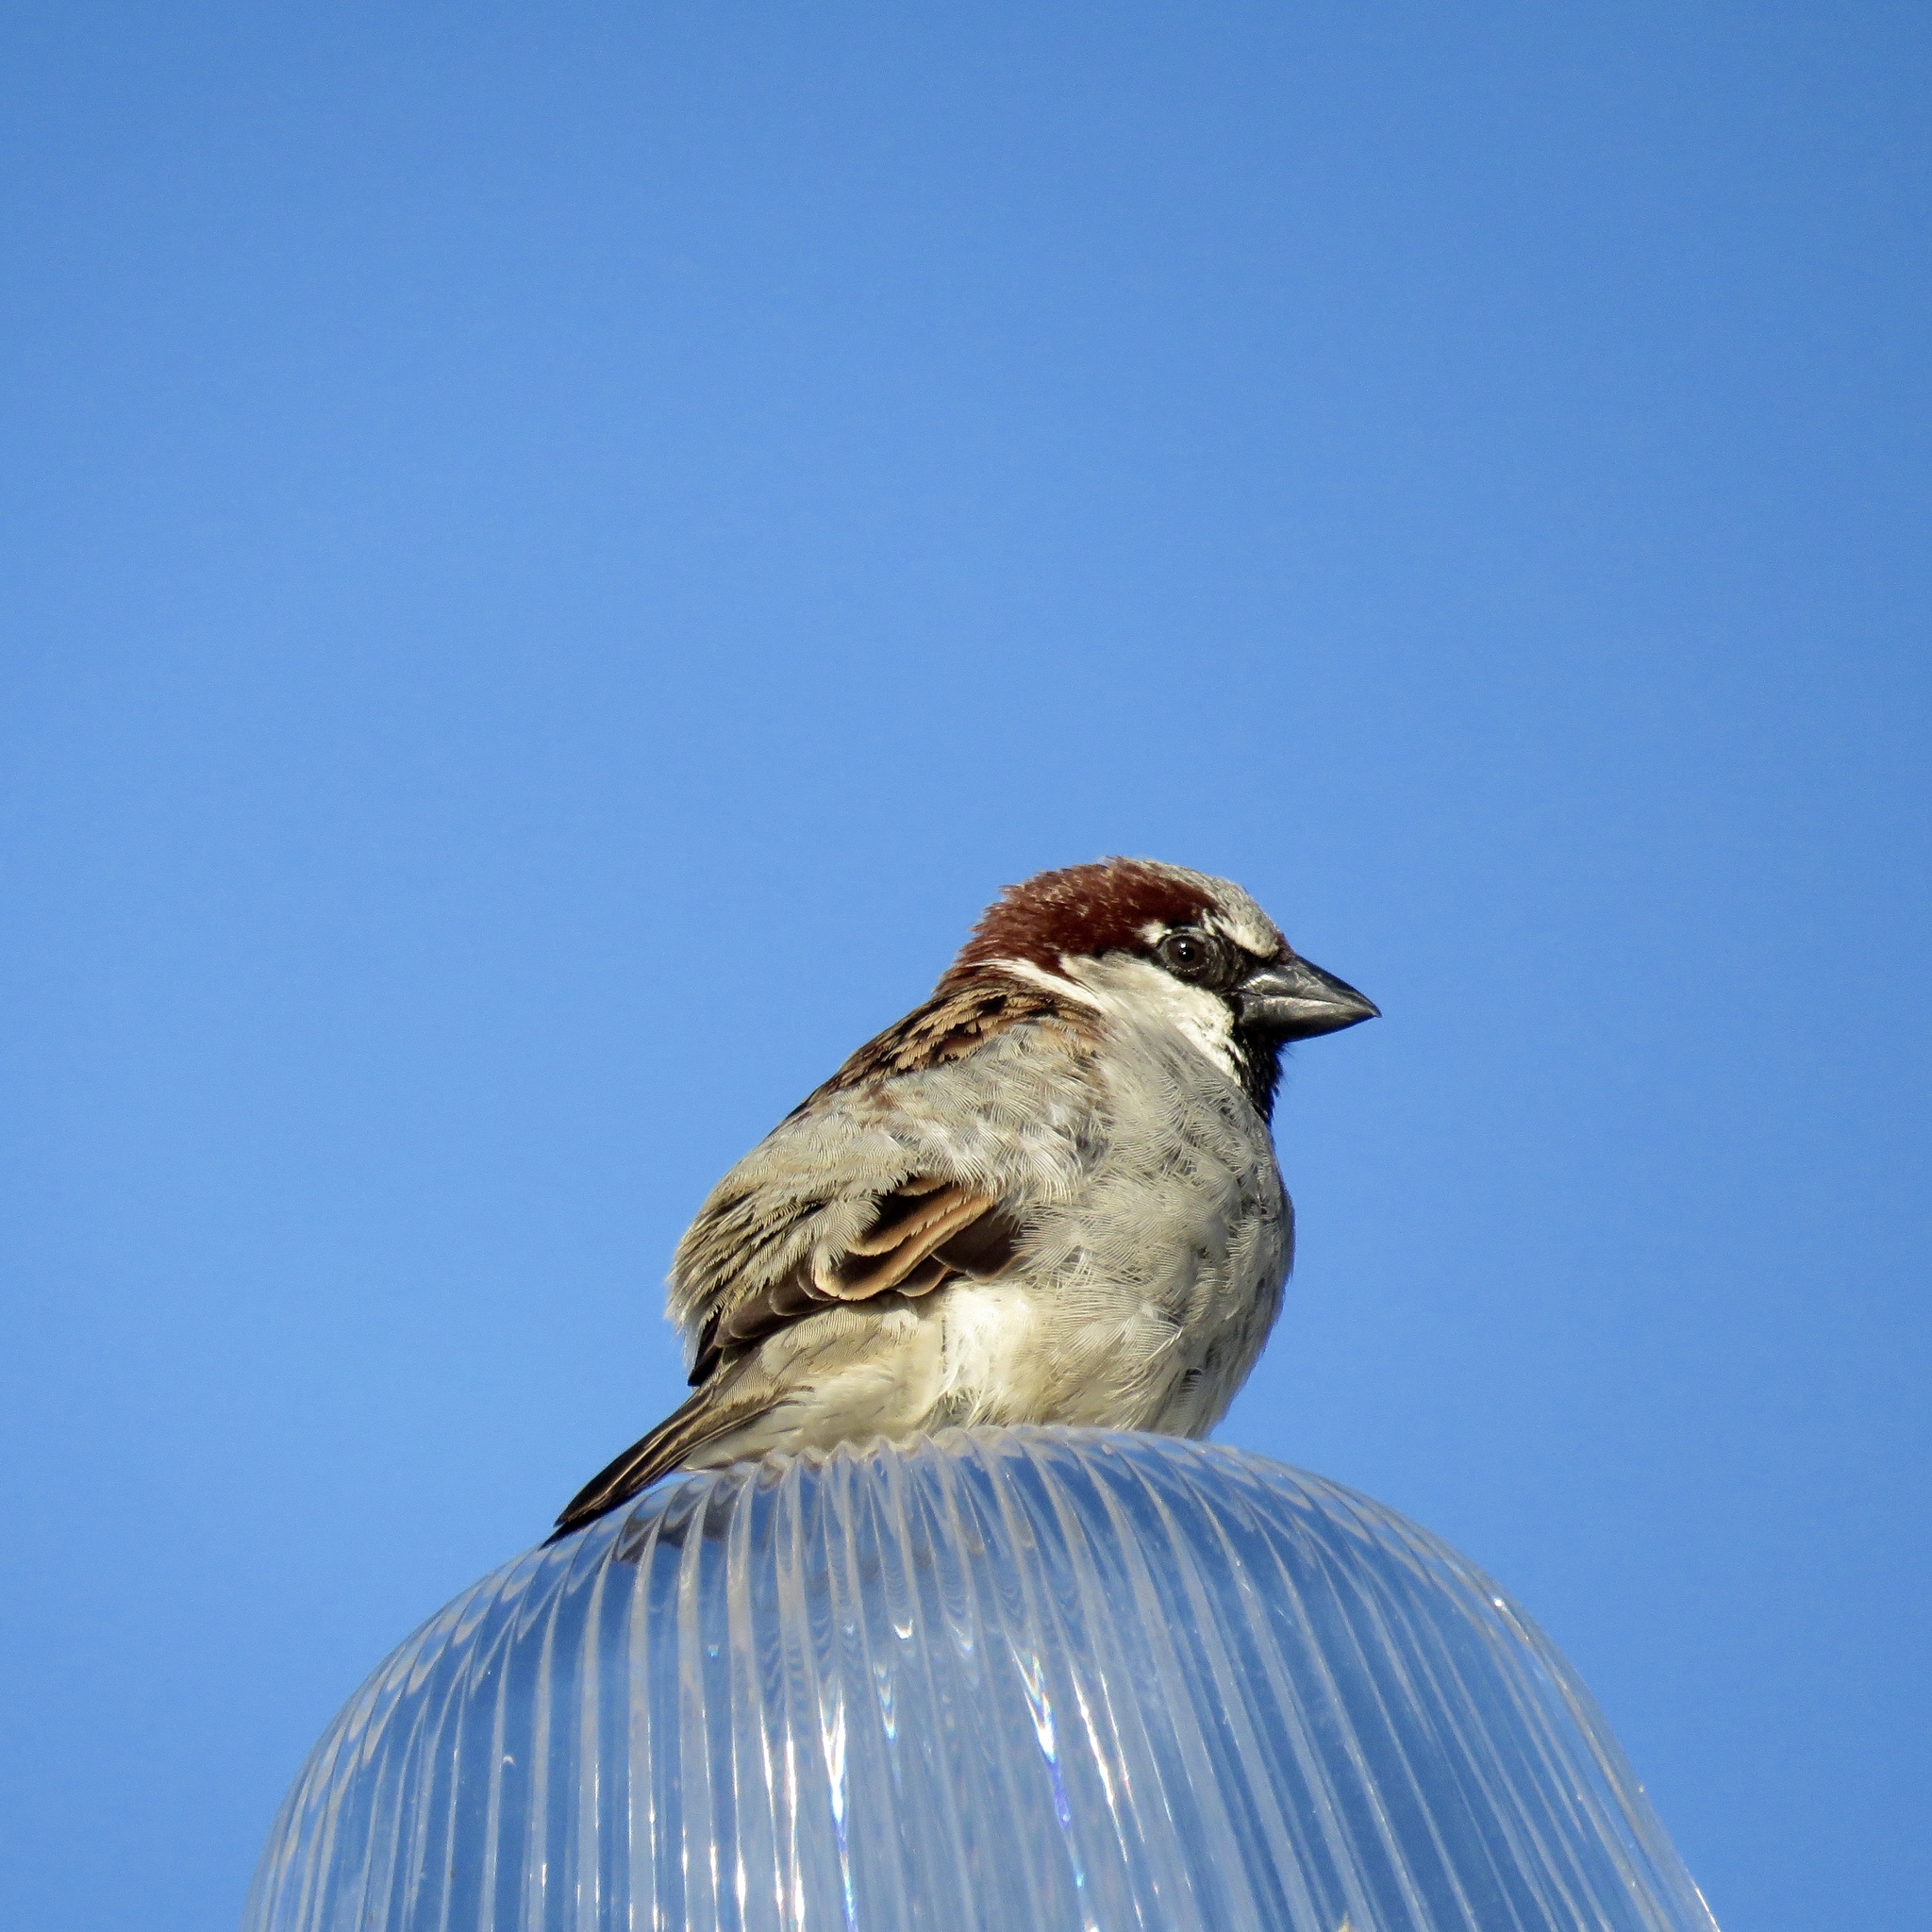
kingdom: Animalia
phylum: Chordata
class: Aves
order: Passeriformes
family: Passeridae
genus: Passer
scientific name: Passer domesticus
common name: House sparrow
